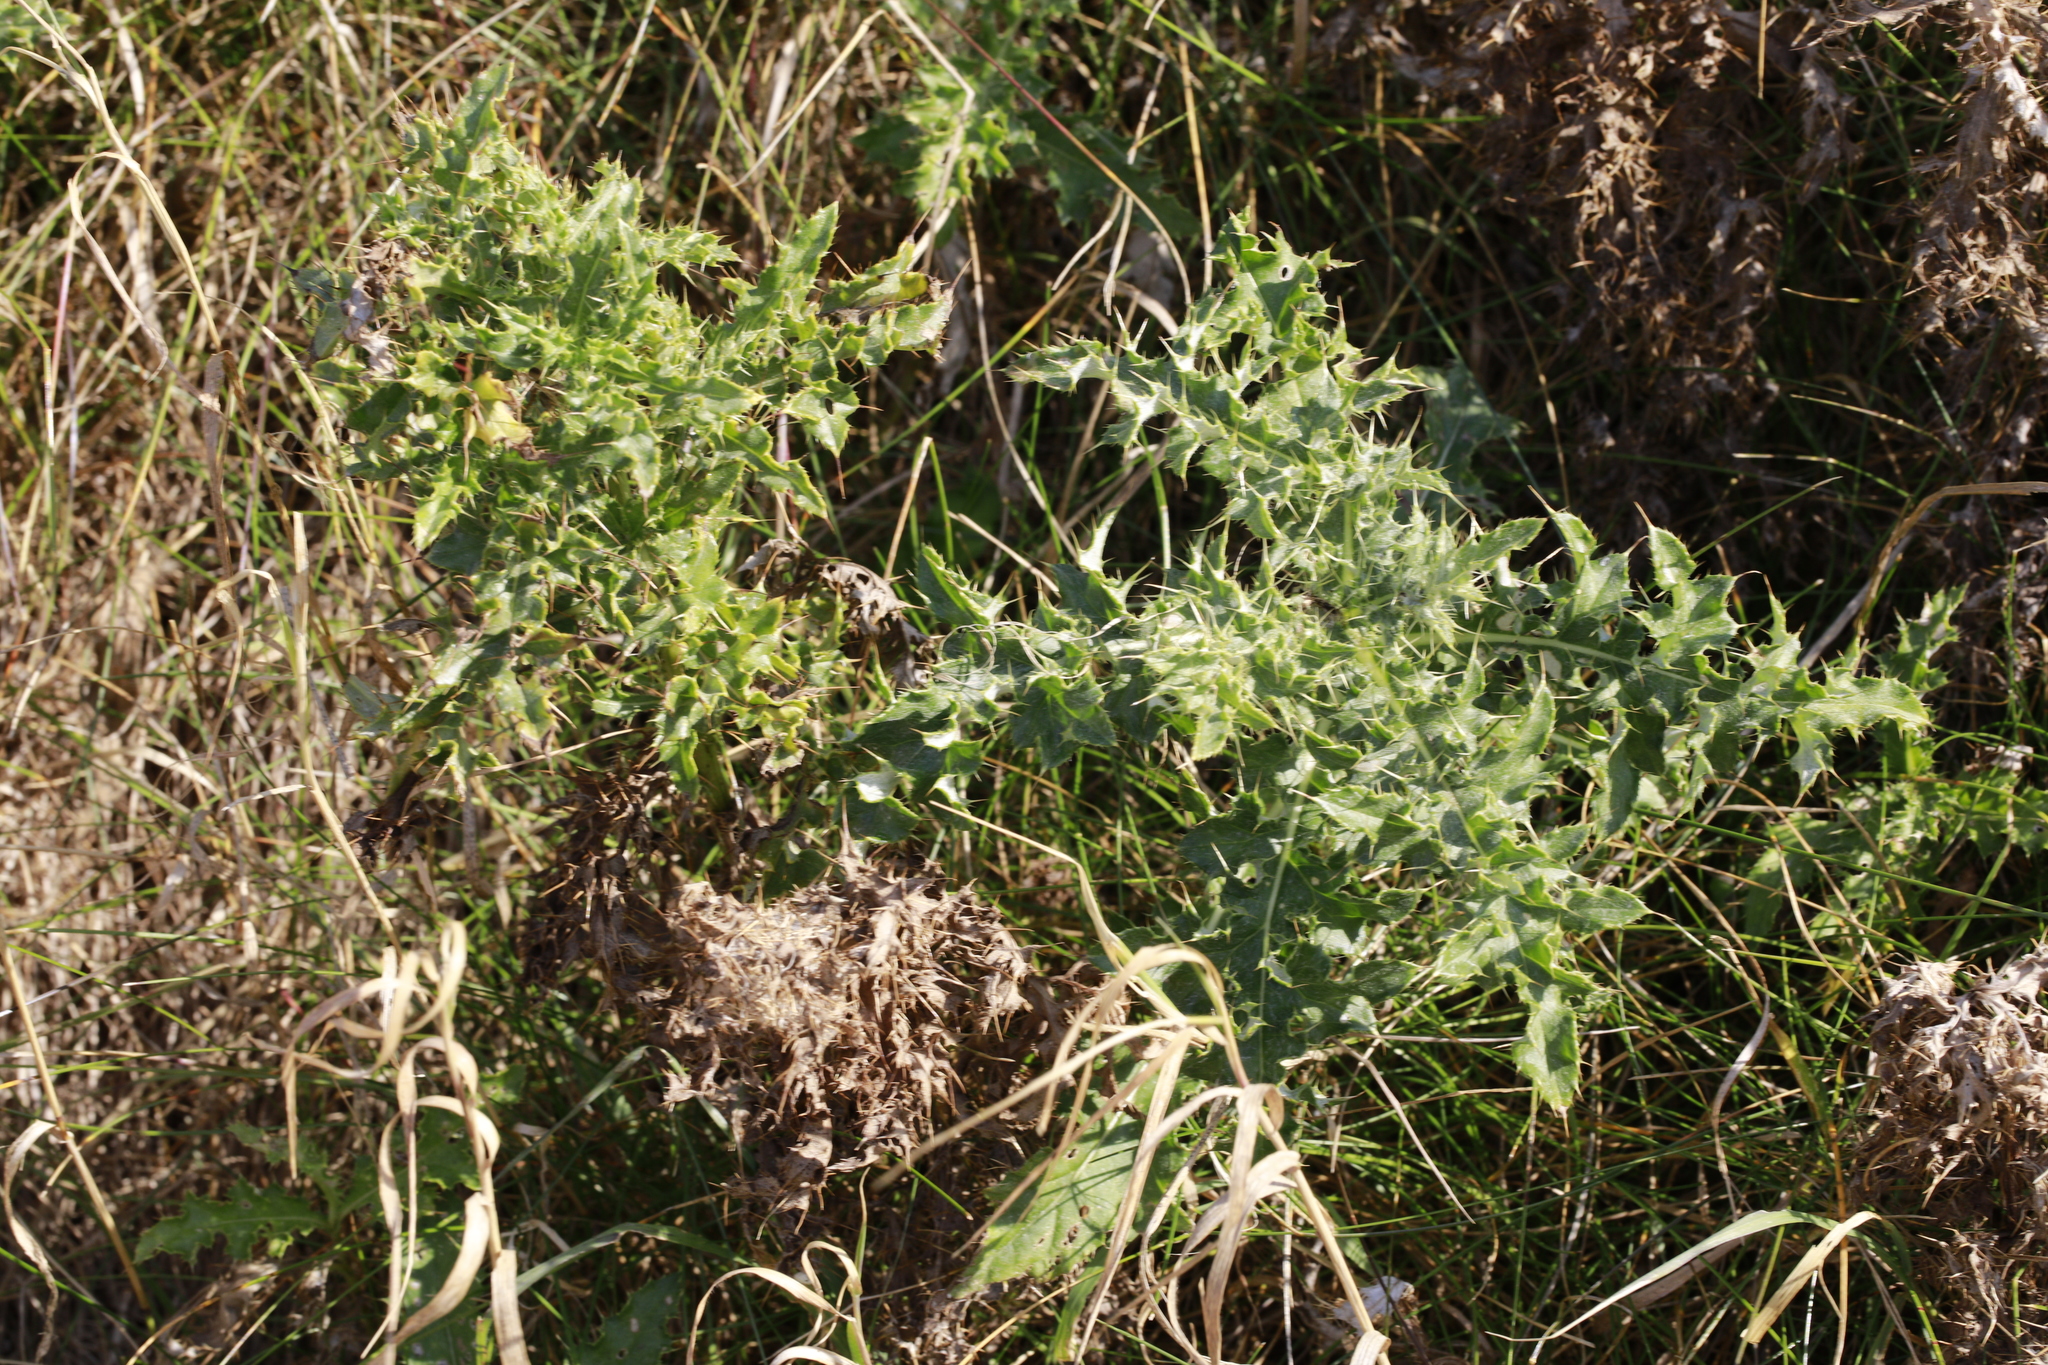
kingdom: Plantae
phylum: Tracheophyta
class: Magnoliopsida
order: Asterales
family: Asteraceae
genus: Cirsium
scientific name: Cirsium arvense
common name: Creeping thistle
